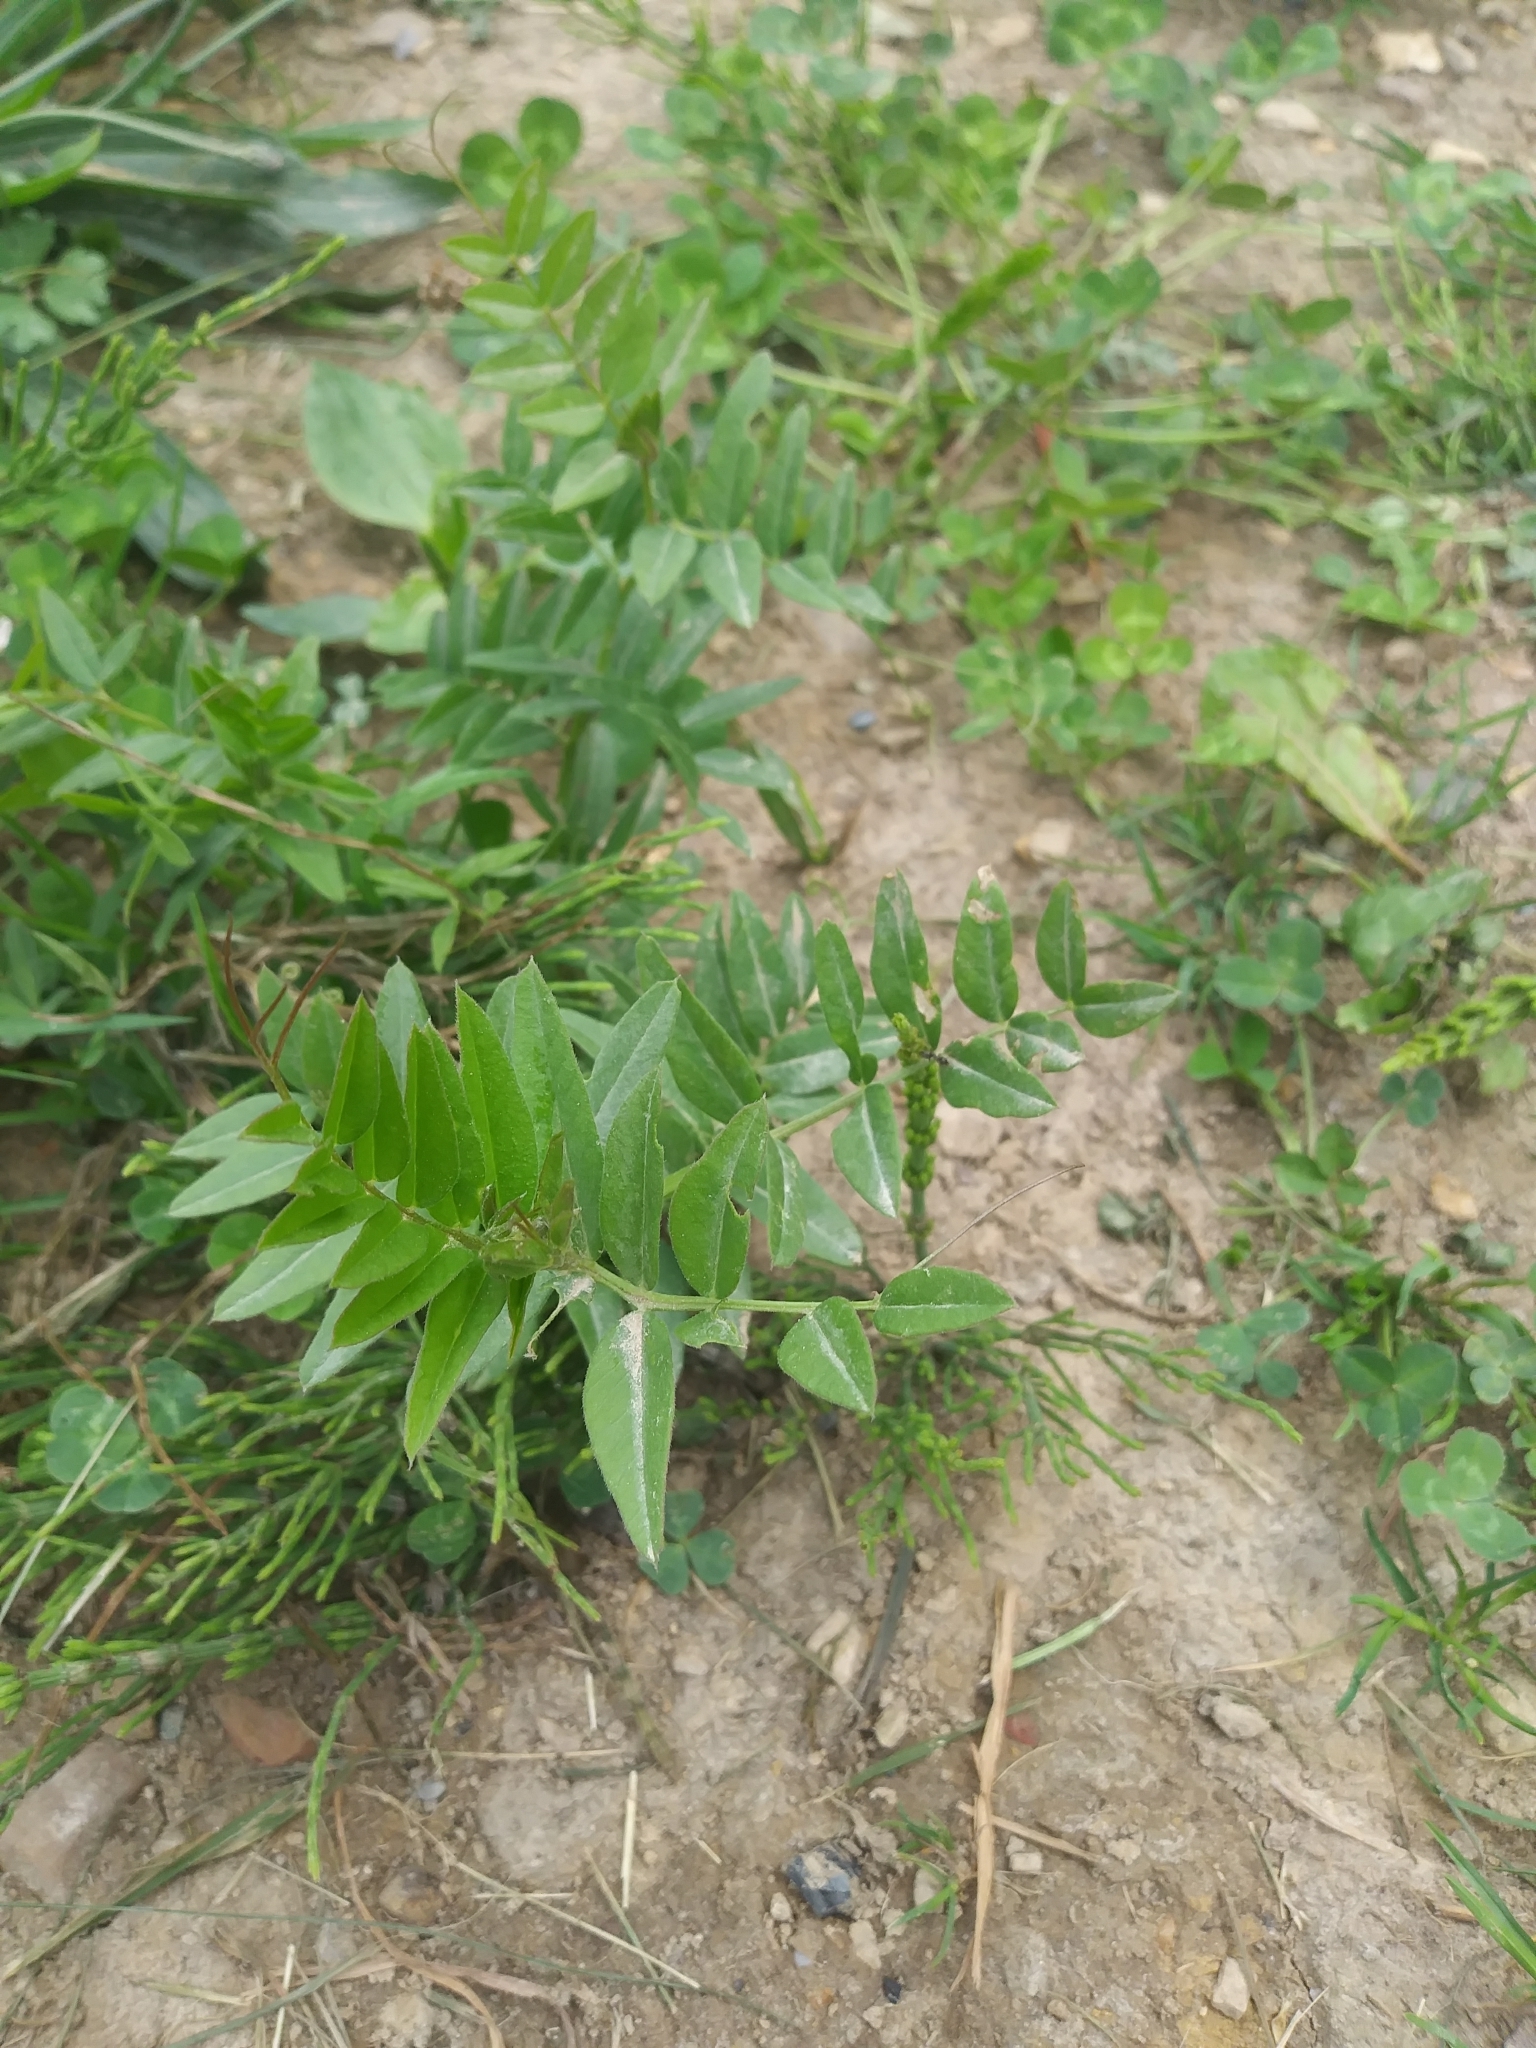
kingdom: Plantae
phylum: Tracheophyta
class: Magnoliopsida
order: Fabales
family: Fabaceae
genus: Vicia
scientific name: Vicia sepium
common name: Bush vetch
